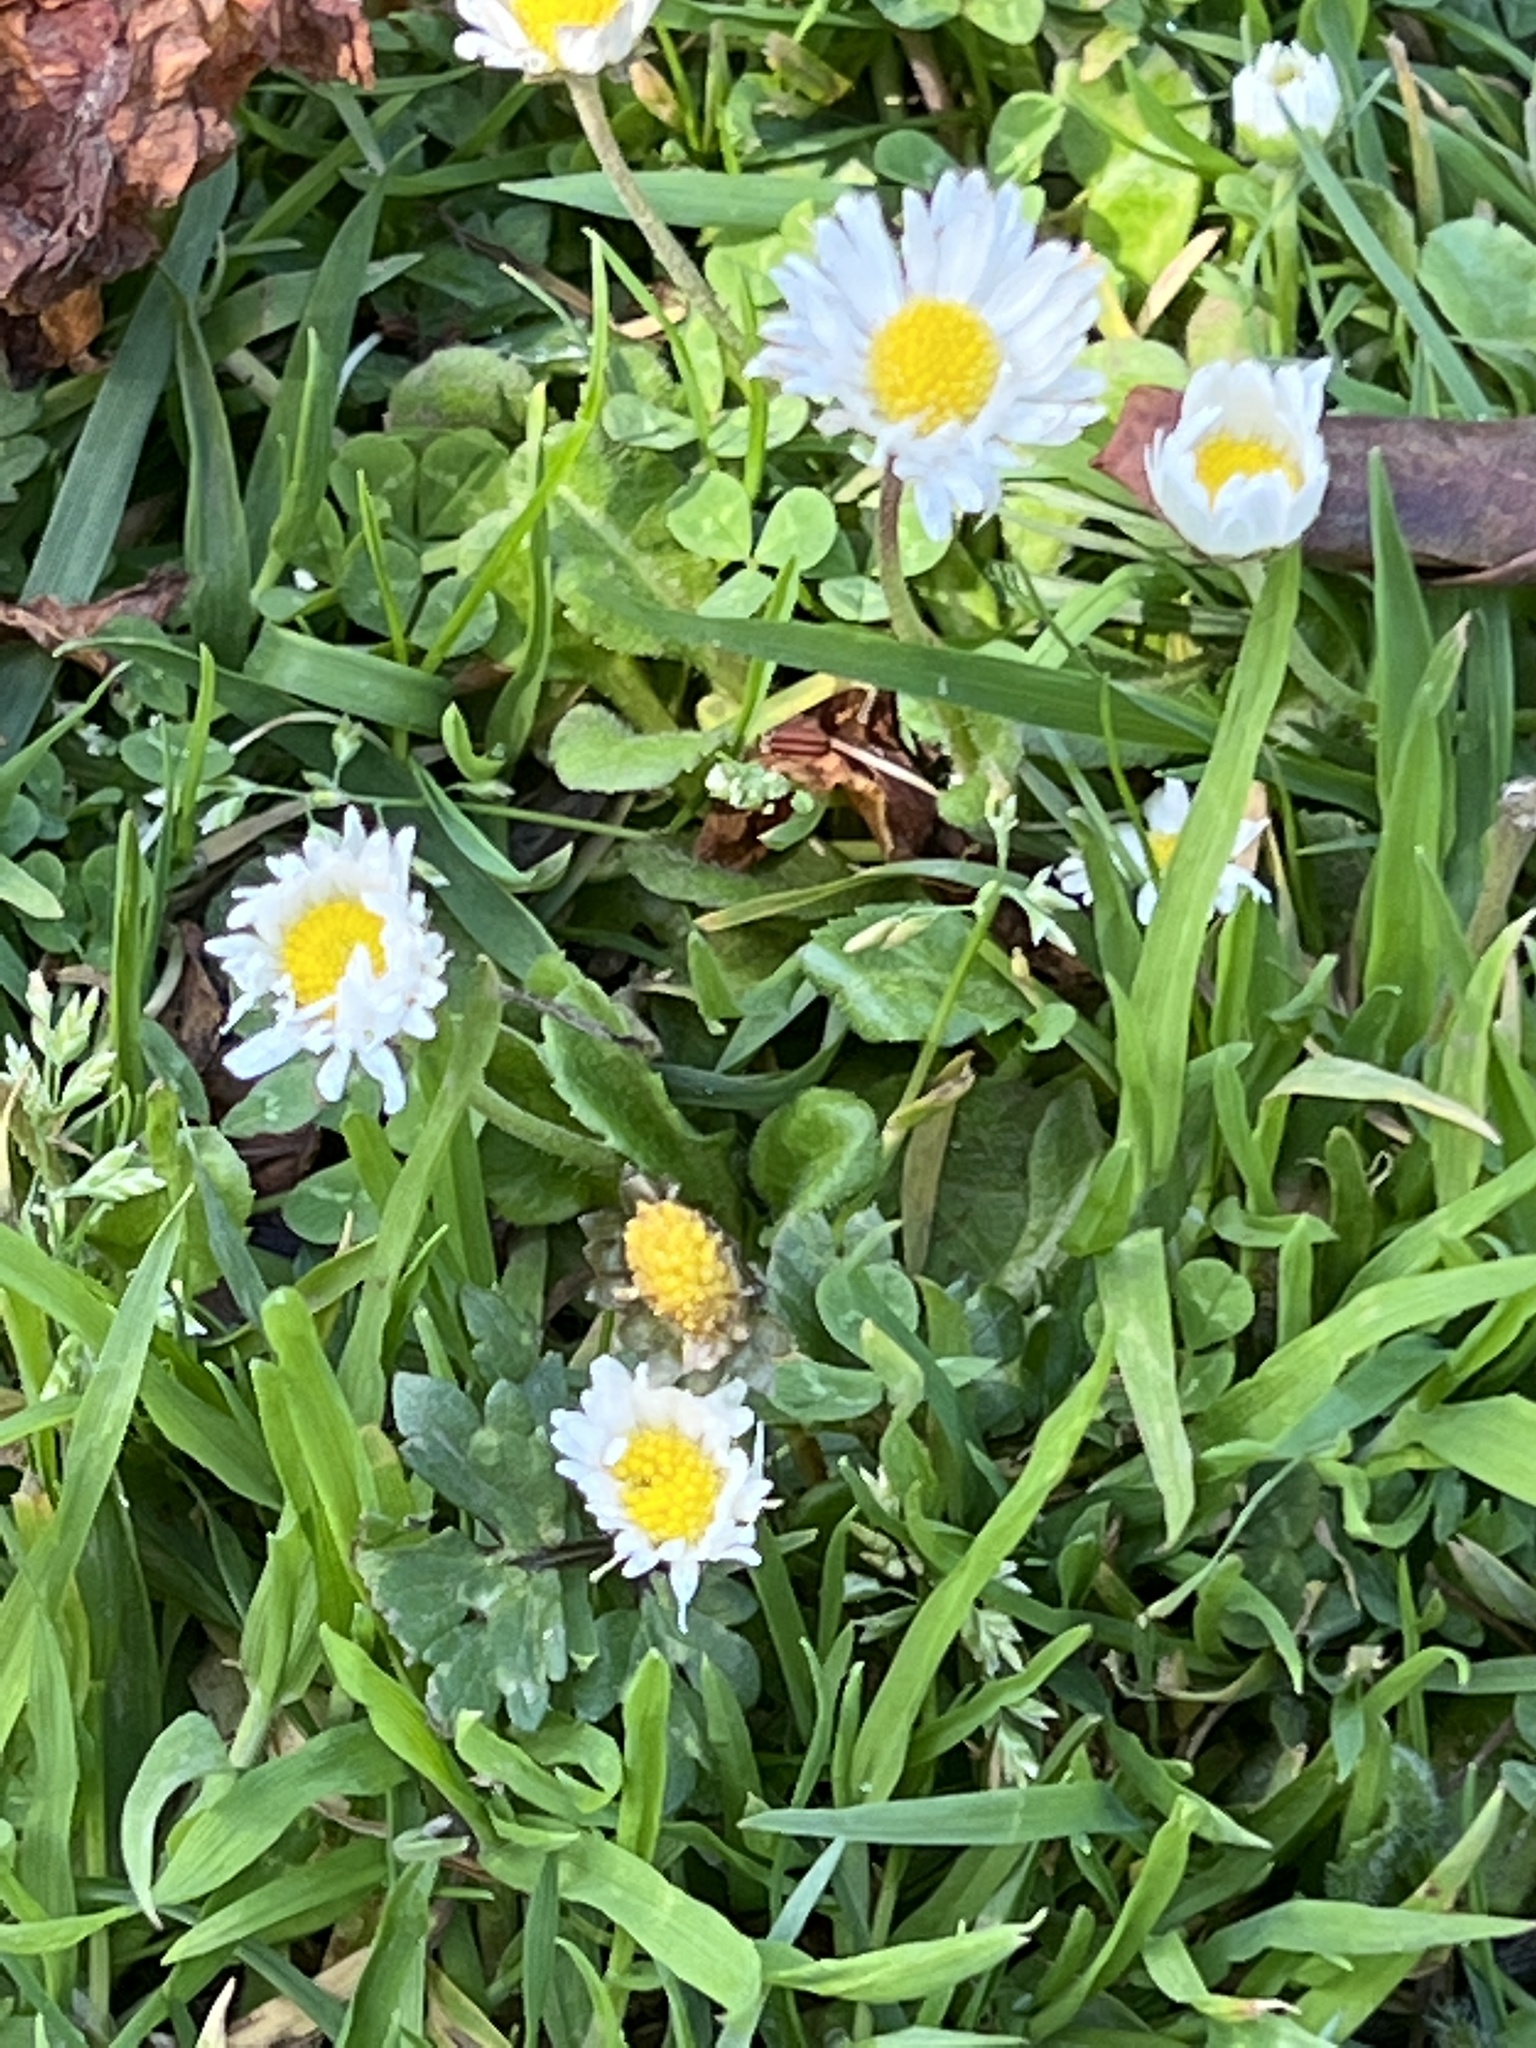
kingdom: Plantae
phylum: Tracheophyta
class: Magnoliopsida
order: Asterales
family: Asteraceae
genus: Bellis
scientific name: Bellis perennis
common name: Lawndaisy
